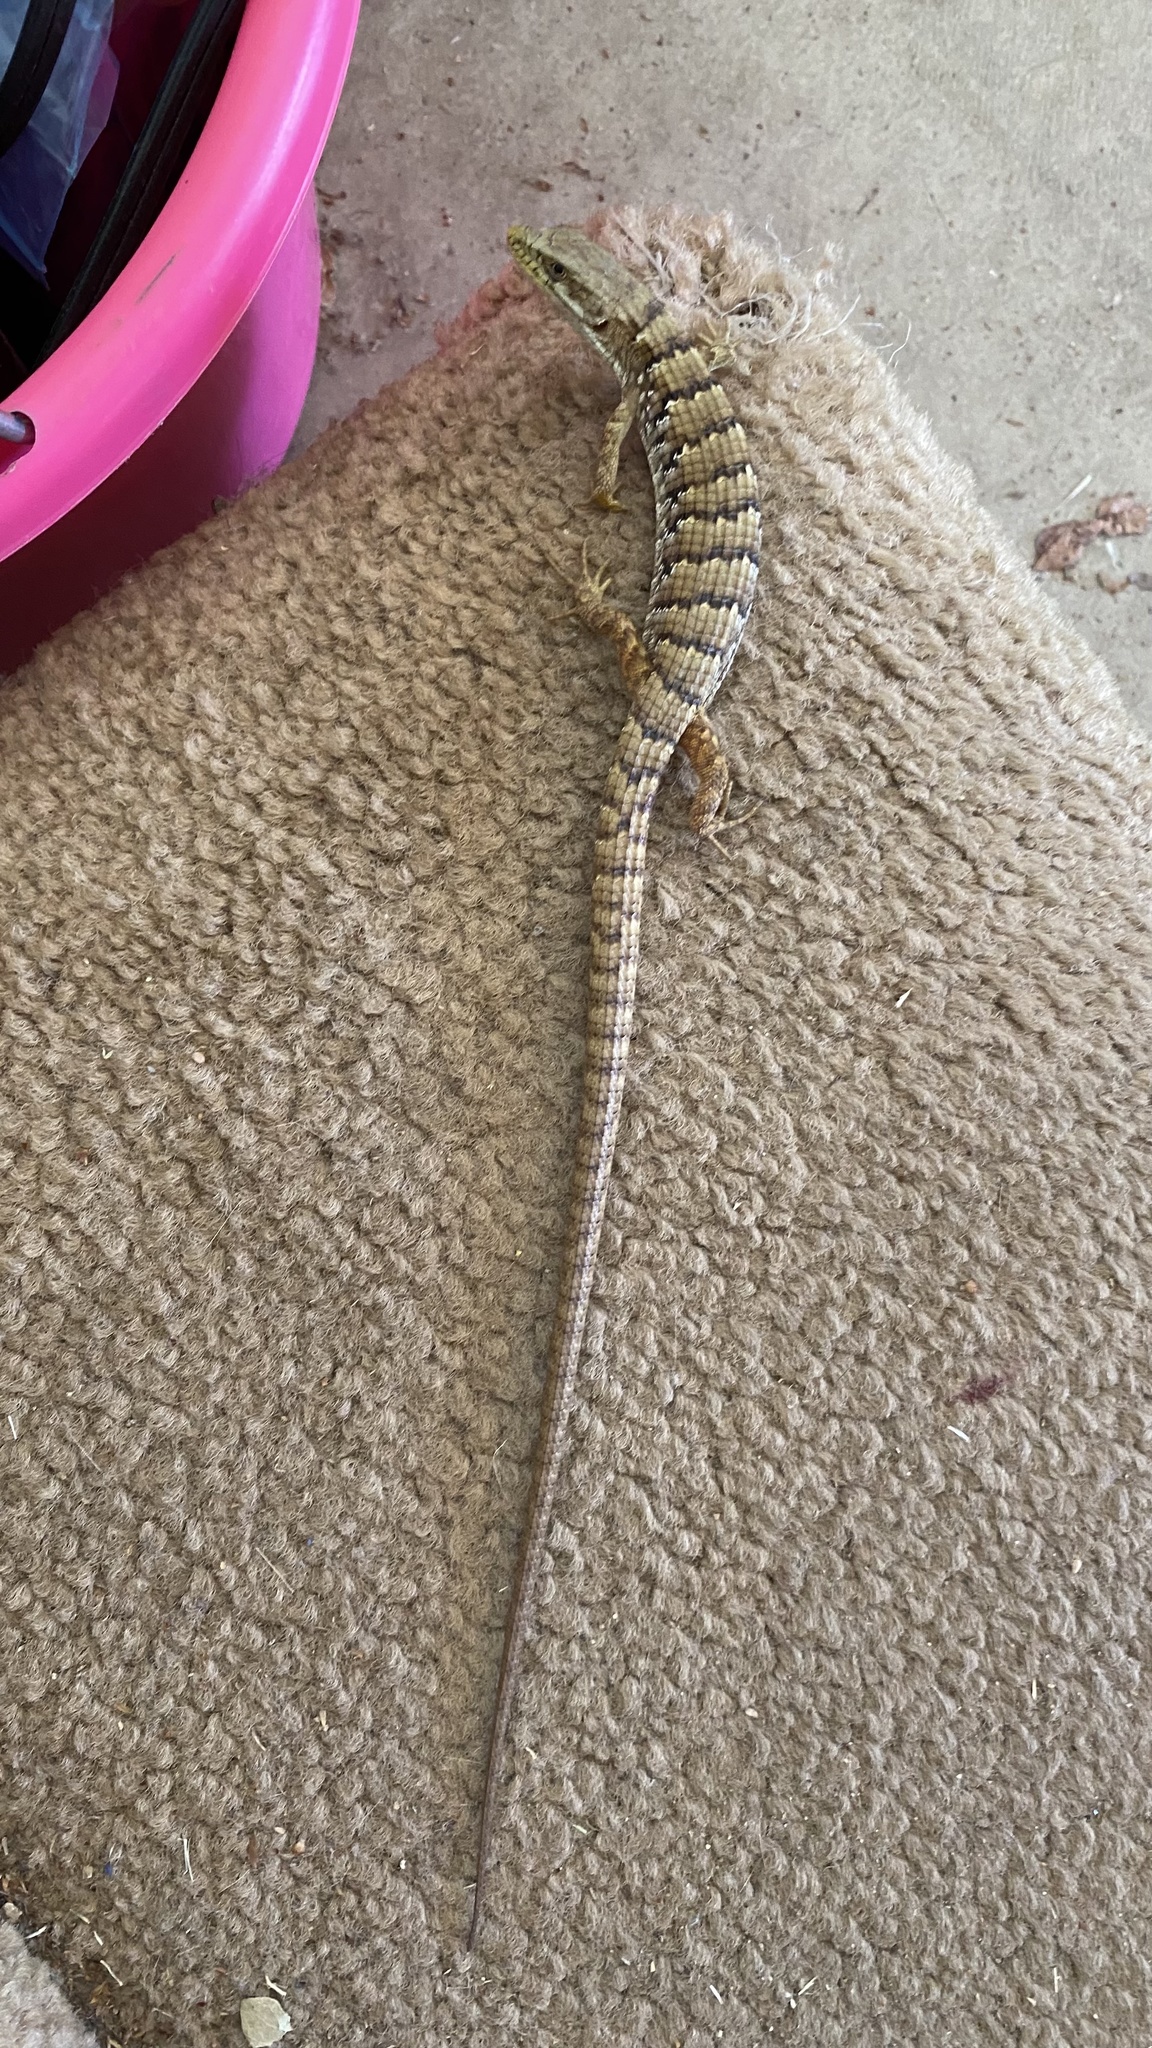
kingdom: Animalia
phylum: Chordata
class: Squamata
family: Anguidae
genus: Elgaria
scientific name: Elgaria multicarinata
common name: Southern alligator lizard
